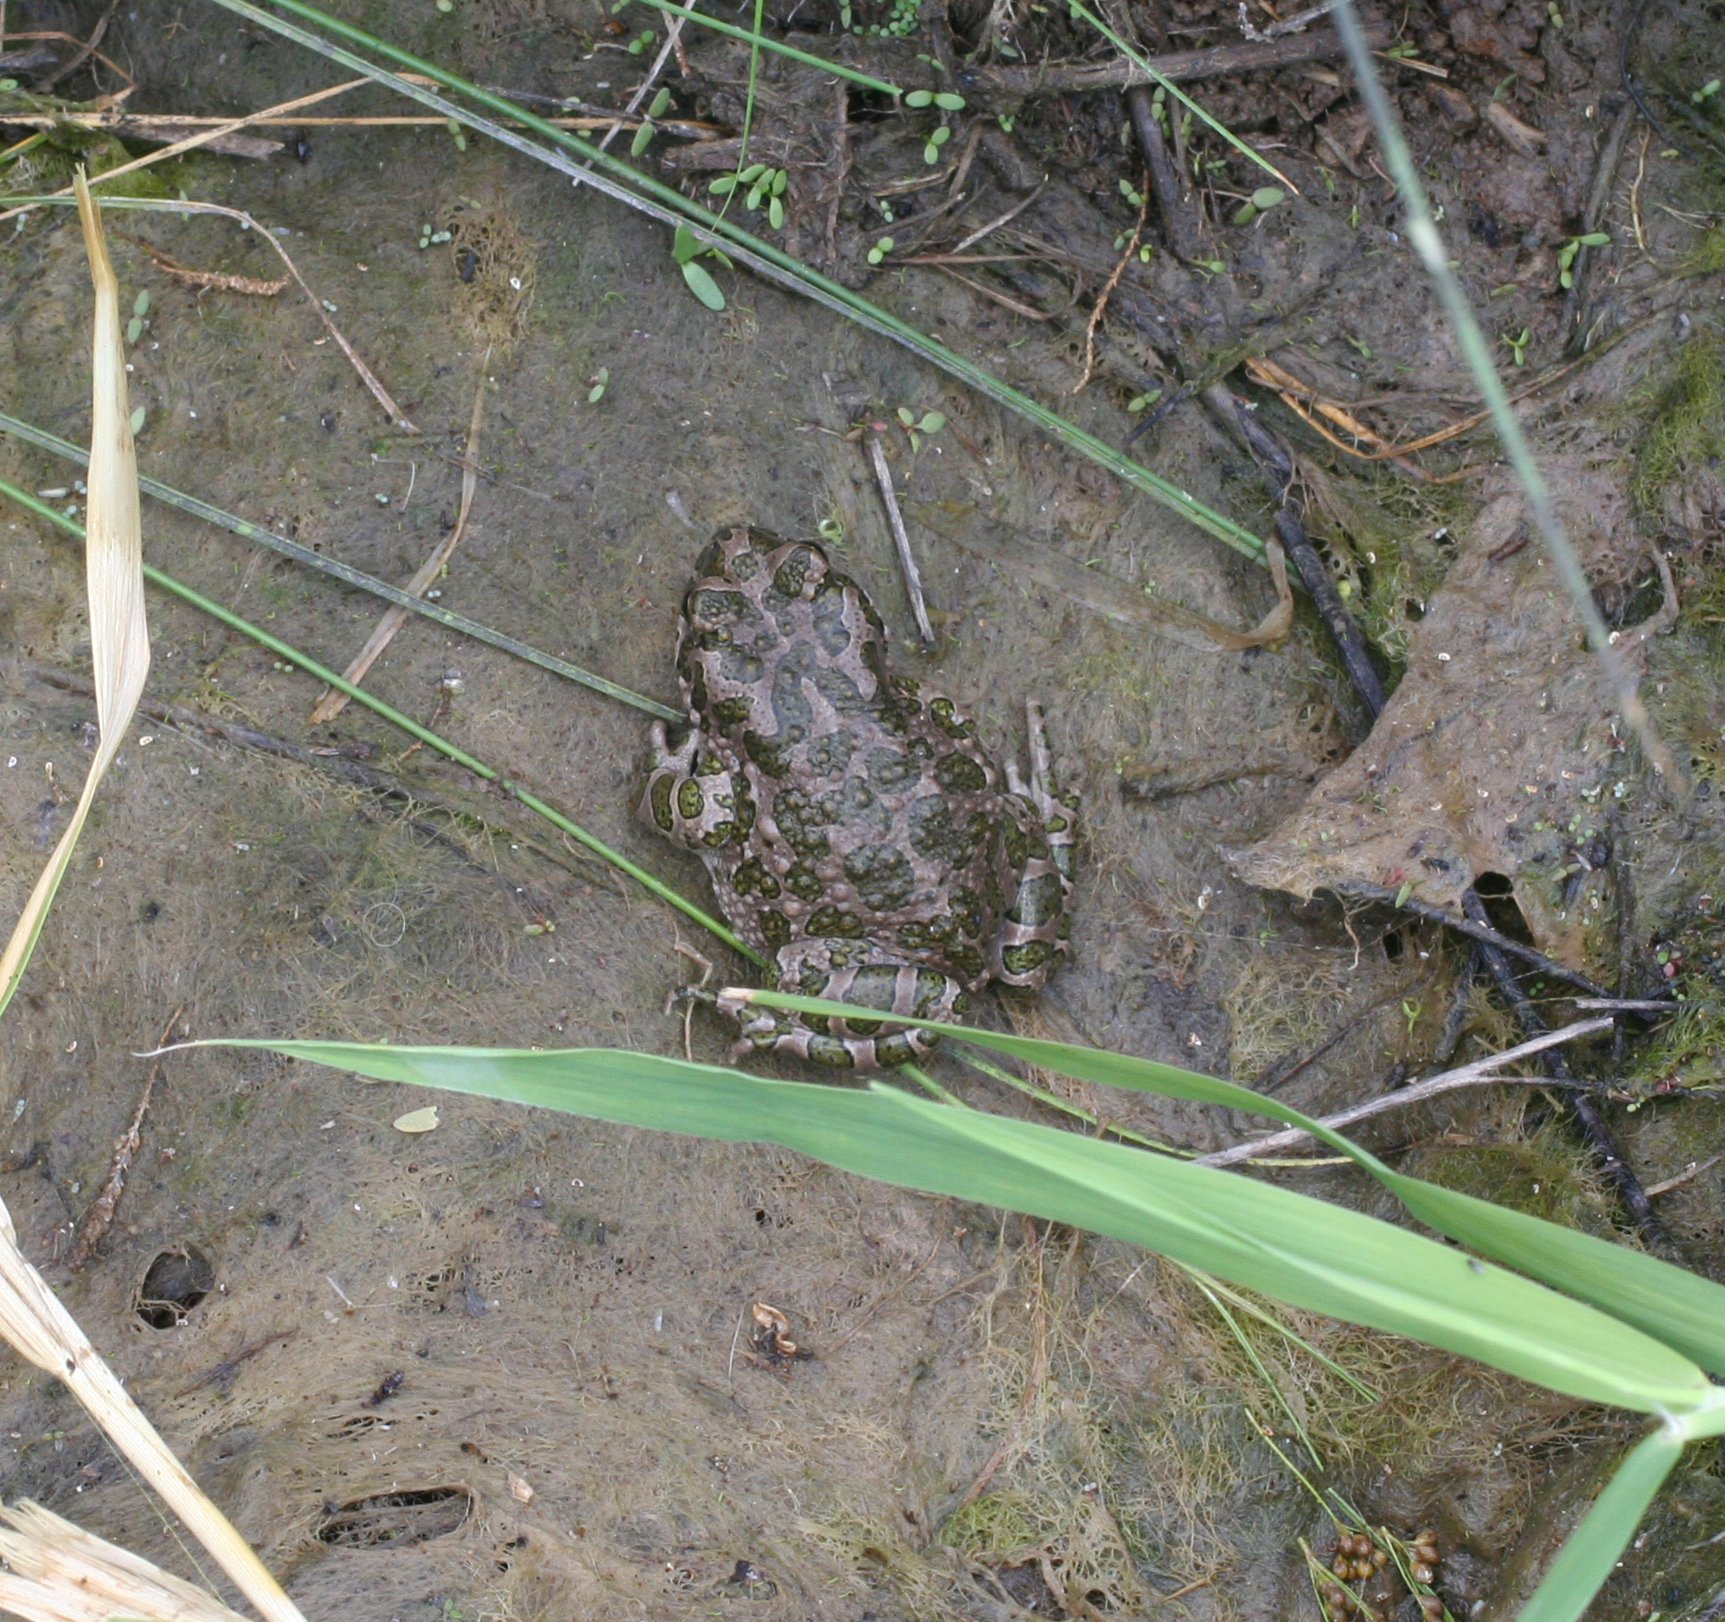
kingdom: Animalia
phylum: Chordata
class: Amphibia
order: Anura
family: Bufonidae
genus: Bufotes
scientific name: Bufotes viridis
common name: European green toad
